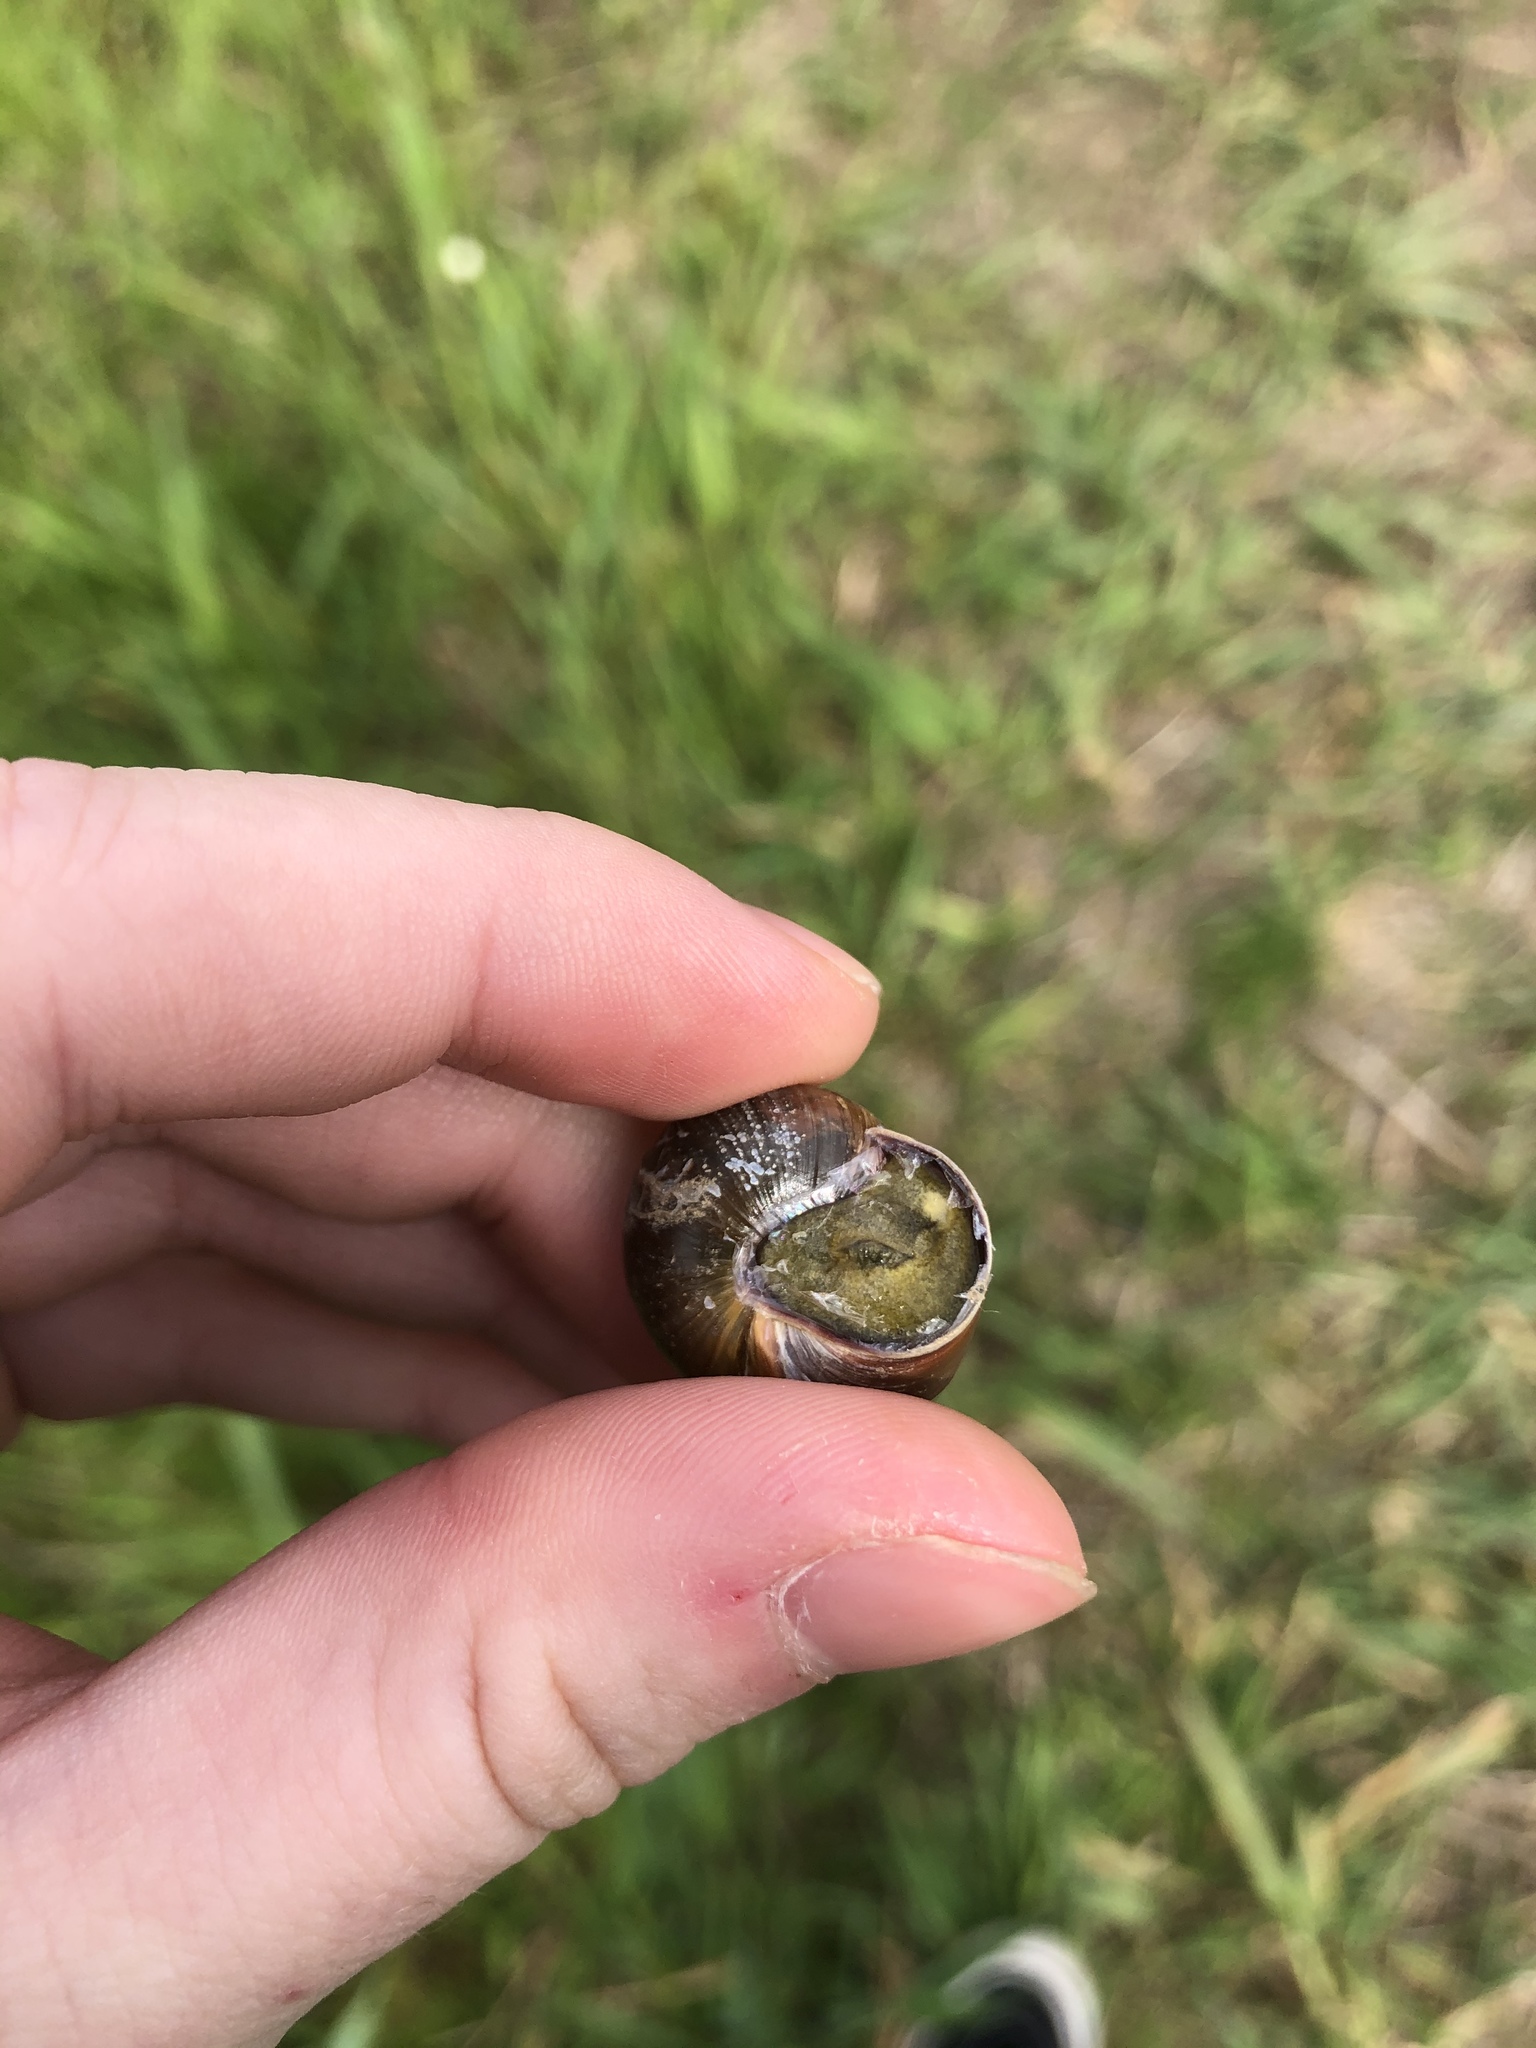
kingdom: Animalia
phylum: Mollusca
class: Gastropoda
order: Stylommatophora
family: Helicidae
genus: Cepaea
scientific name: Cepaea nemoralis
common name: Grovesnail
